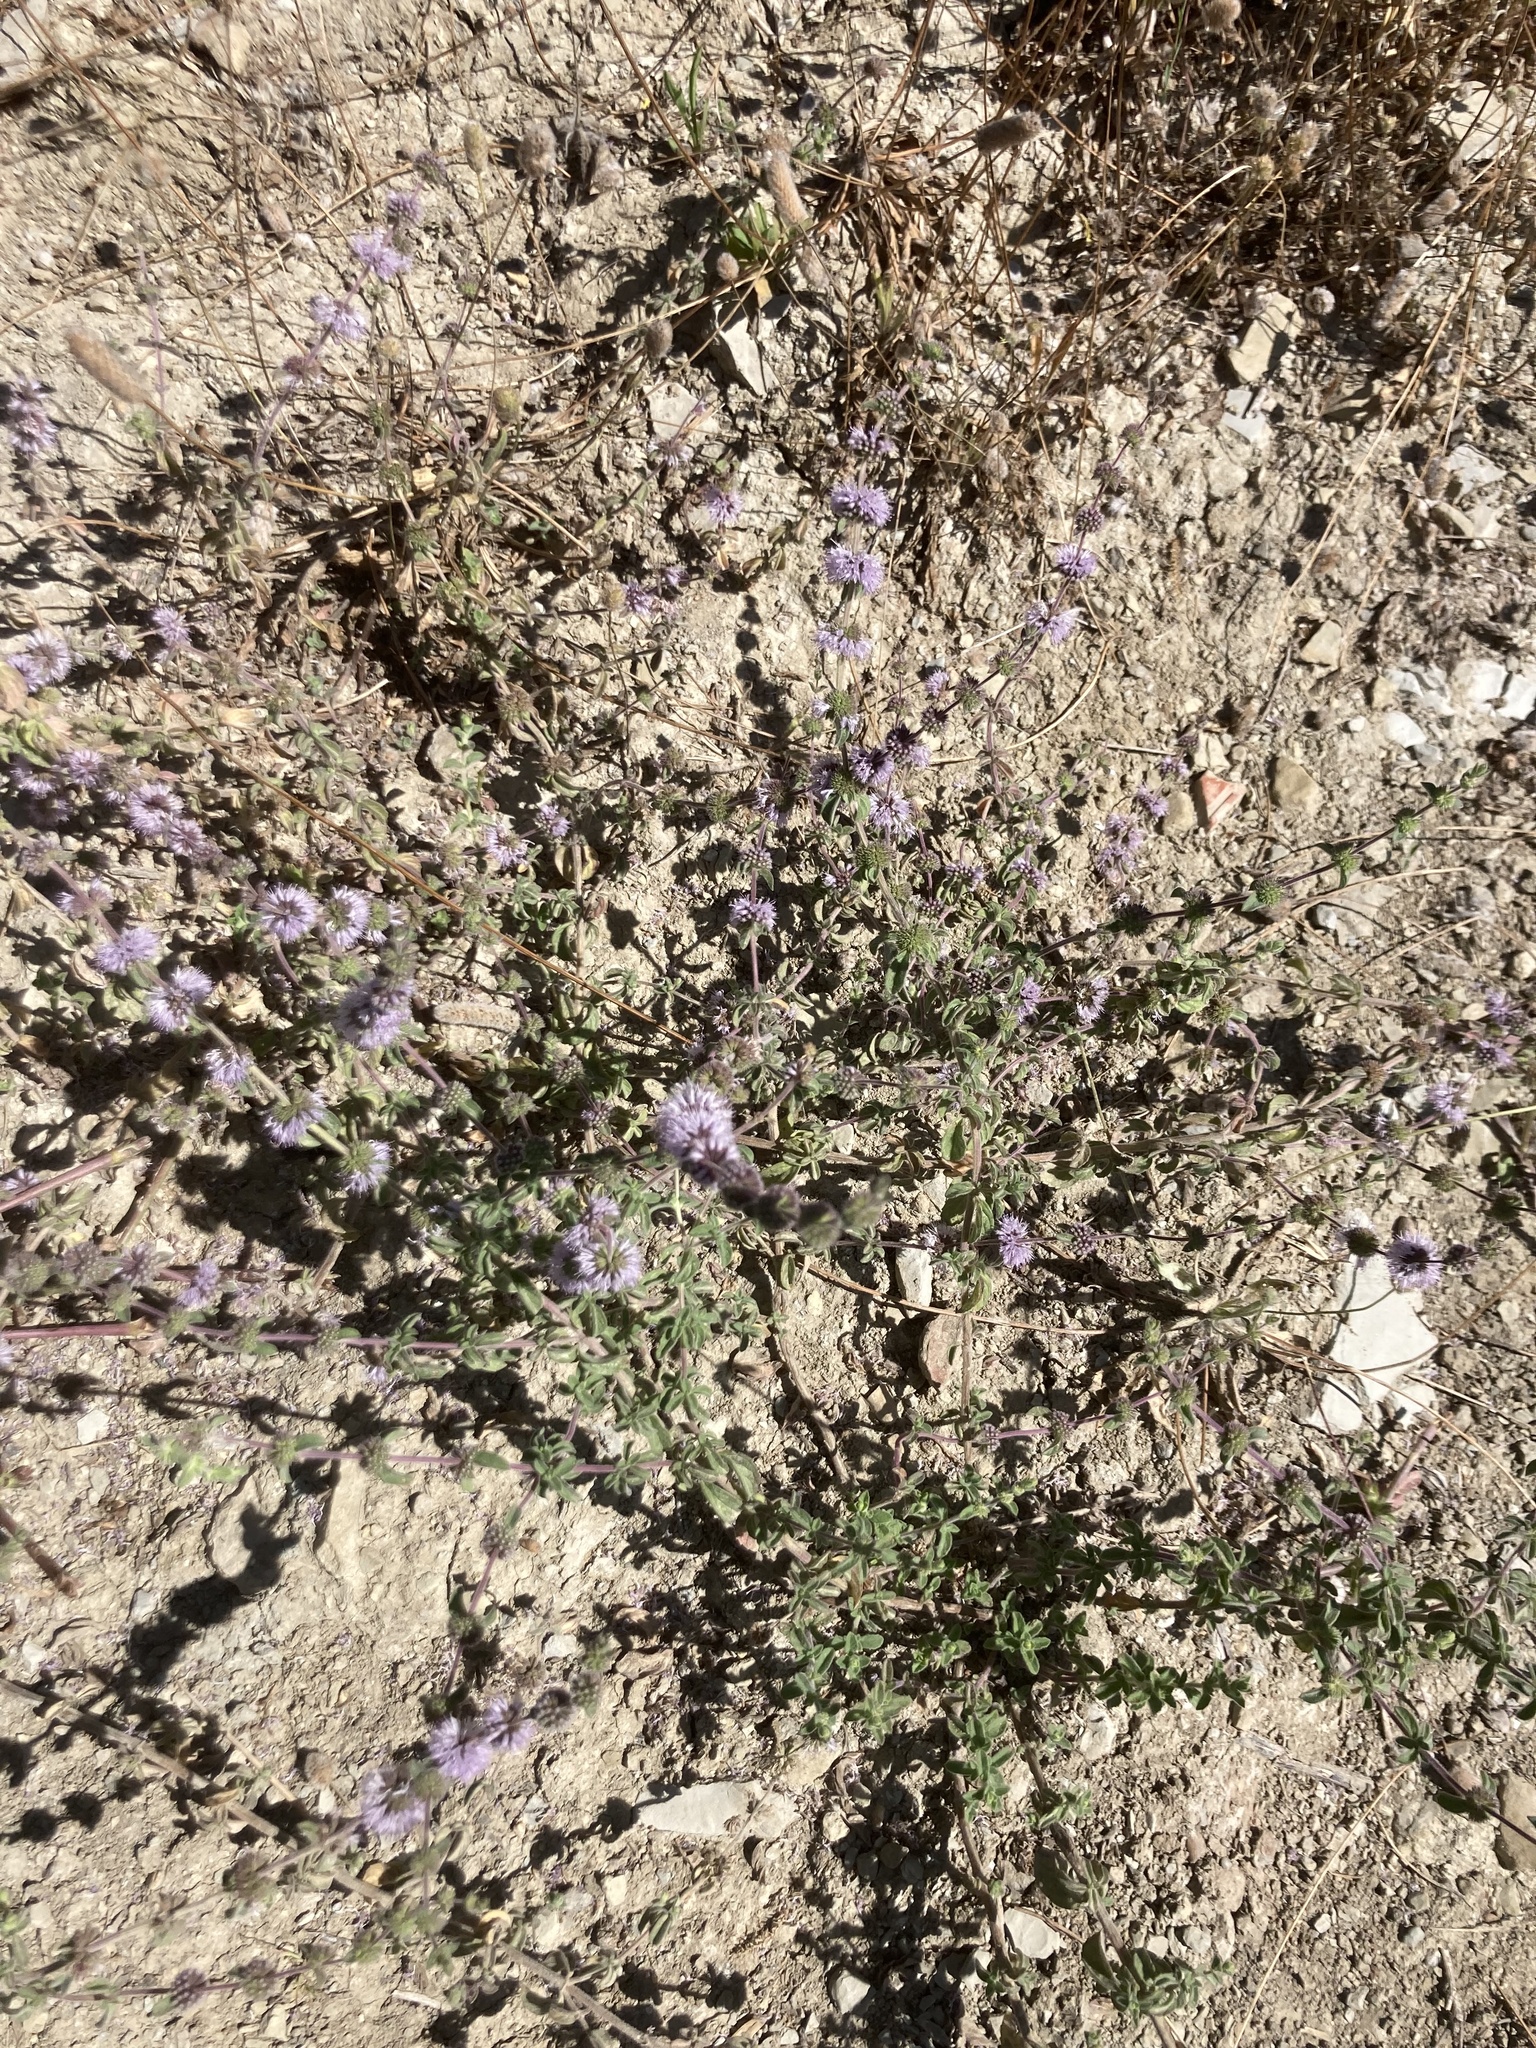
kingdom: Plantae
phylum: Tracheophyta
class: Magnoliopsida
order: Lamiales
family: Lamiaceae
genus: Mentha
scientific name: Mentha pulegium
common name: Pennyroyal
